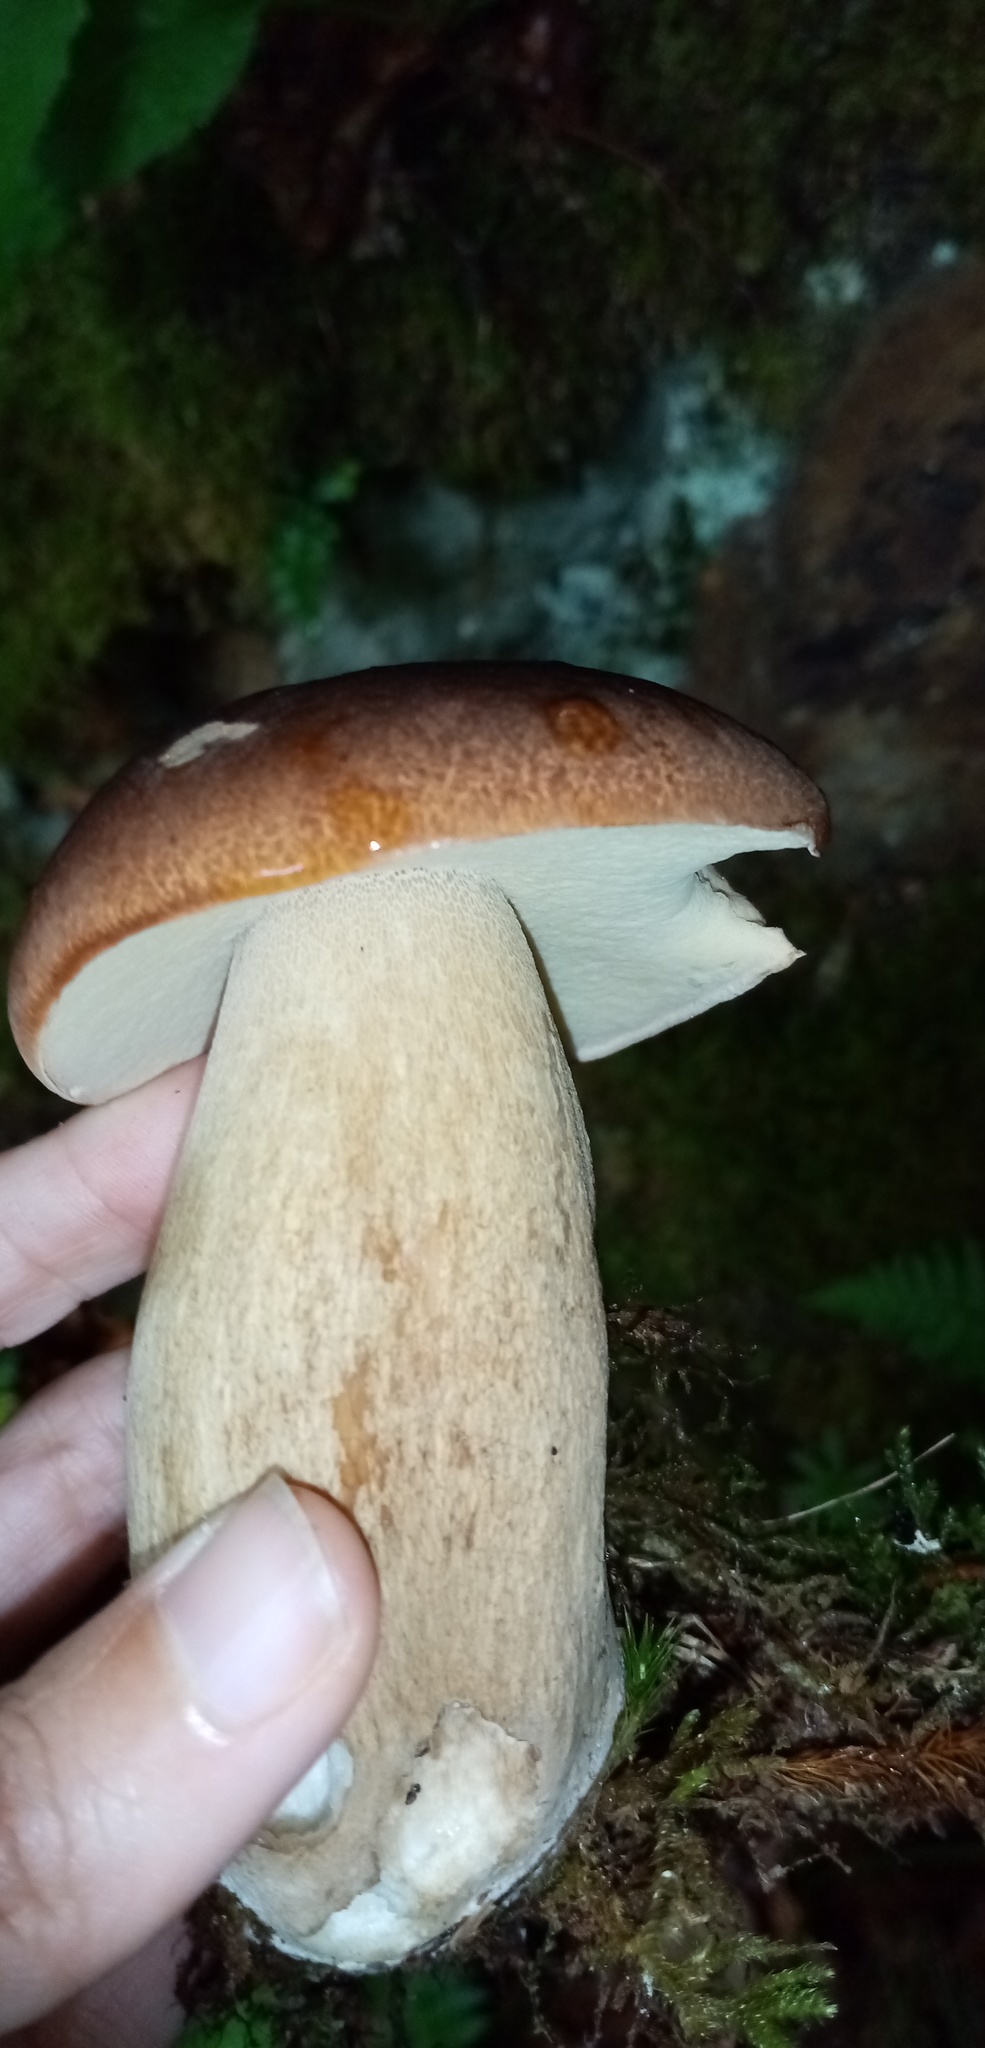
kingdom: Fungi
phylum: Basidiomycota
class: Agaricomycetes
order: Boletales
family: Boletaceae
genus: Boletus
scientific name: Boletus reticulatus
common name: Summer bolete
